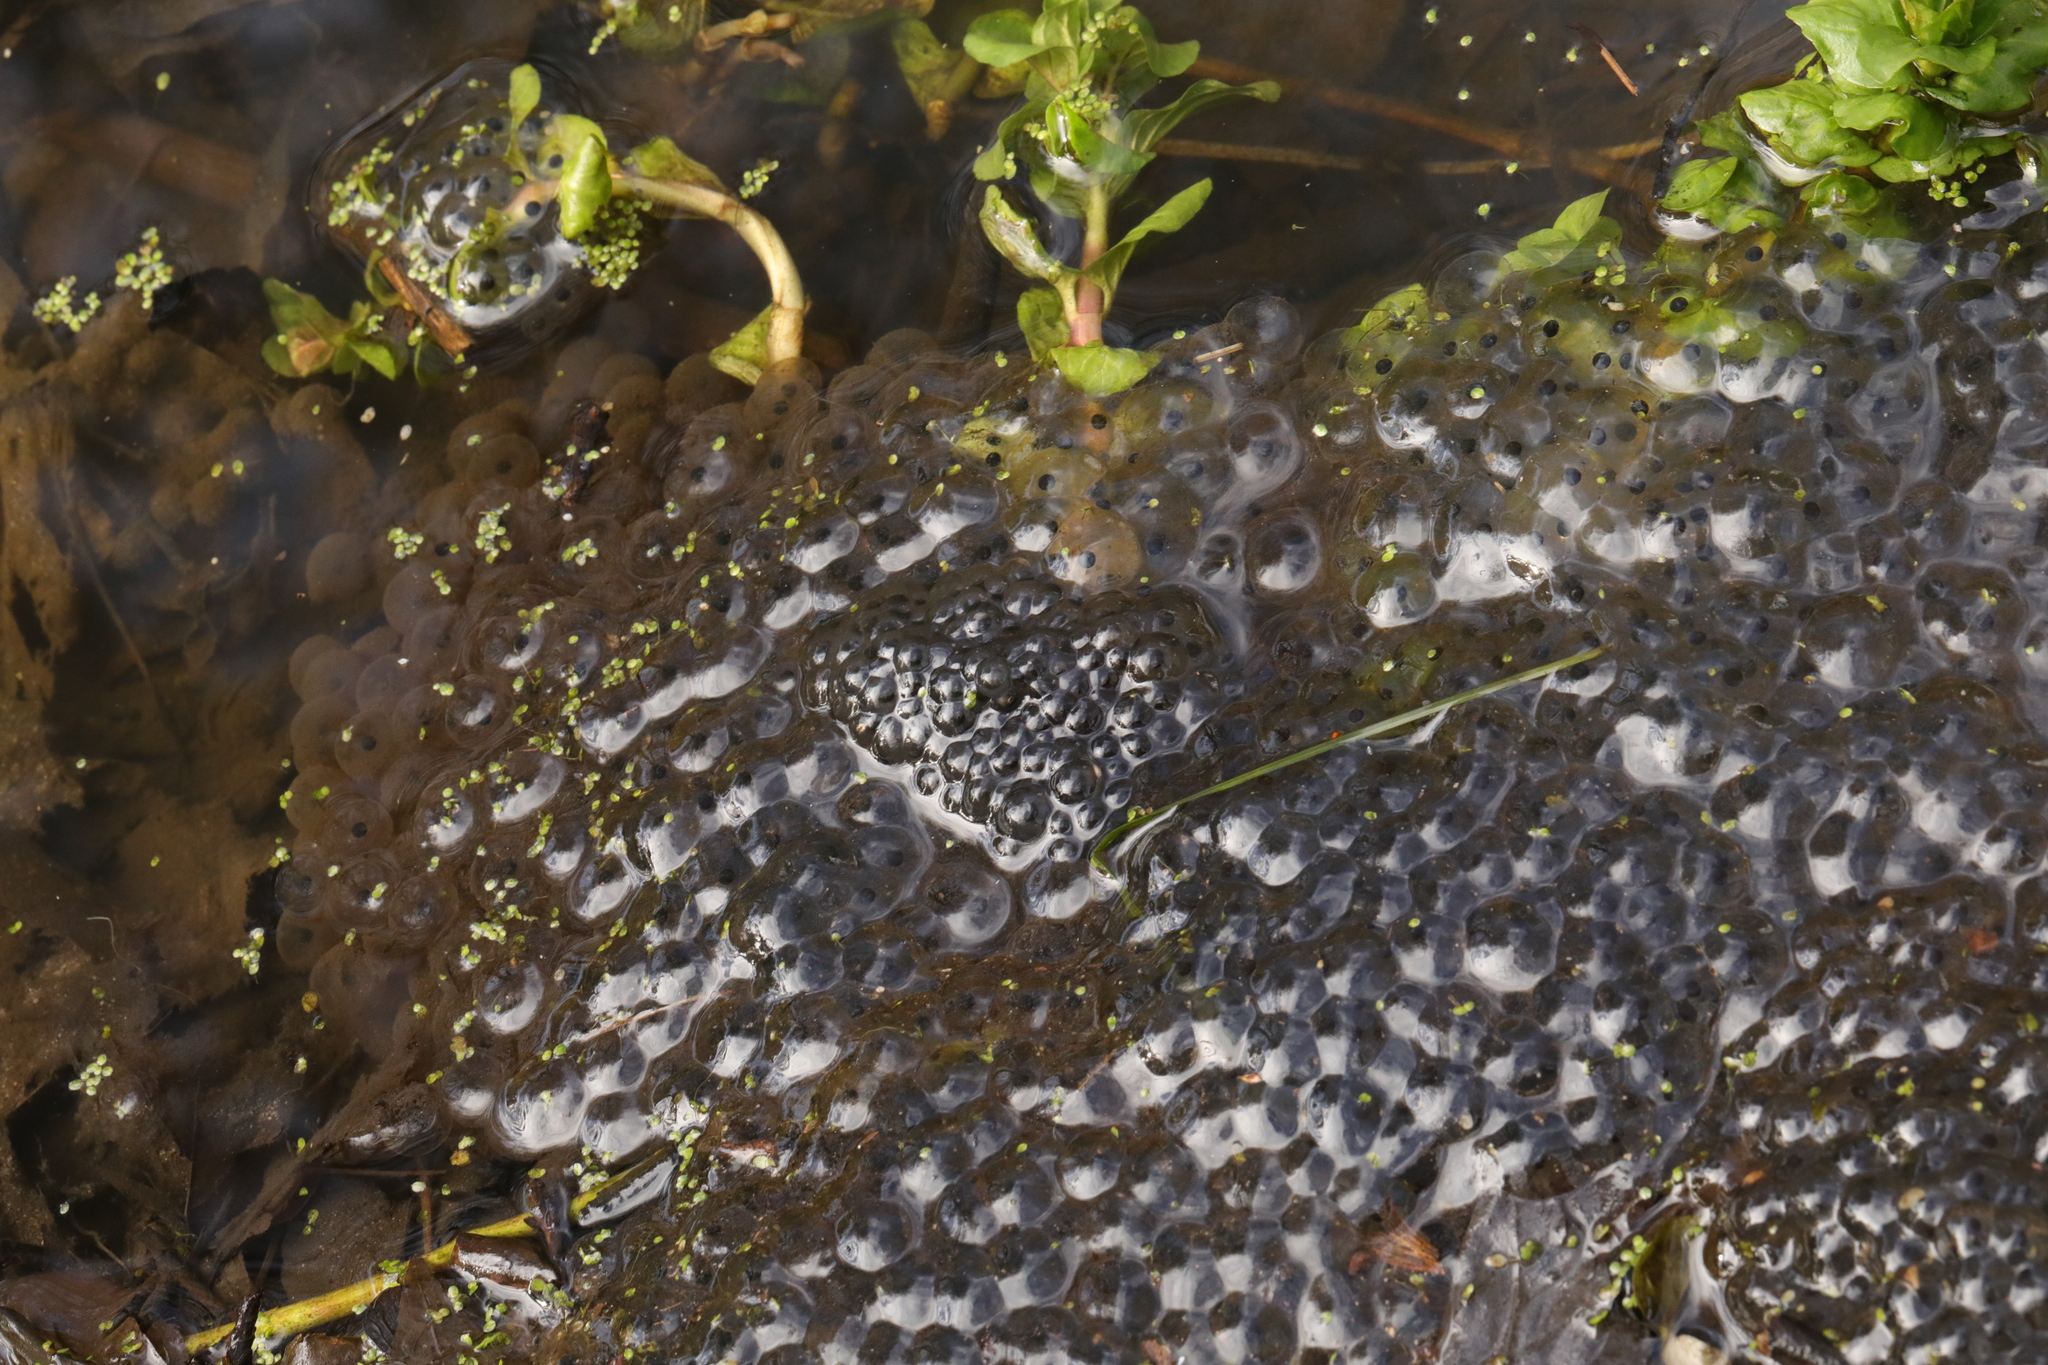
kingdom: Animalia
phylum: Chordata
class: Amphibia
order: Anura
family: Ranidae
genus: Rana
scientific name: Rana temporaria
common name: Common frog
